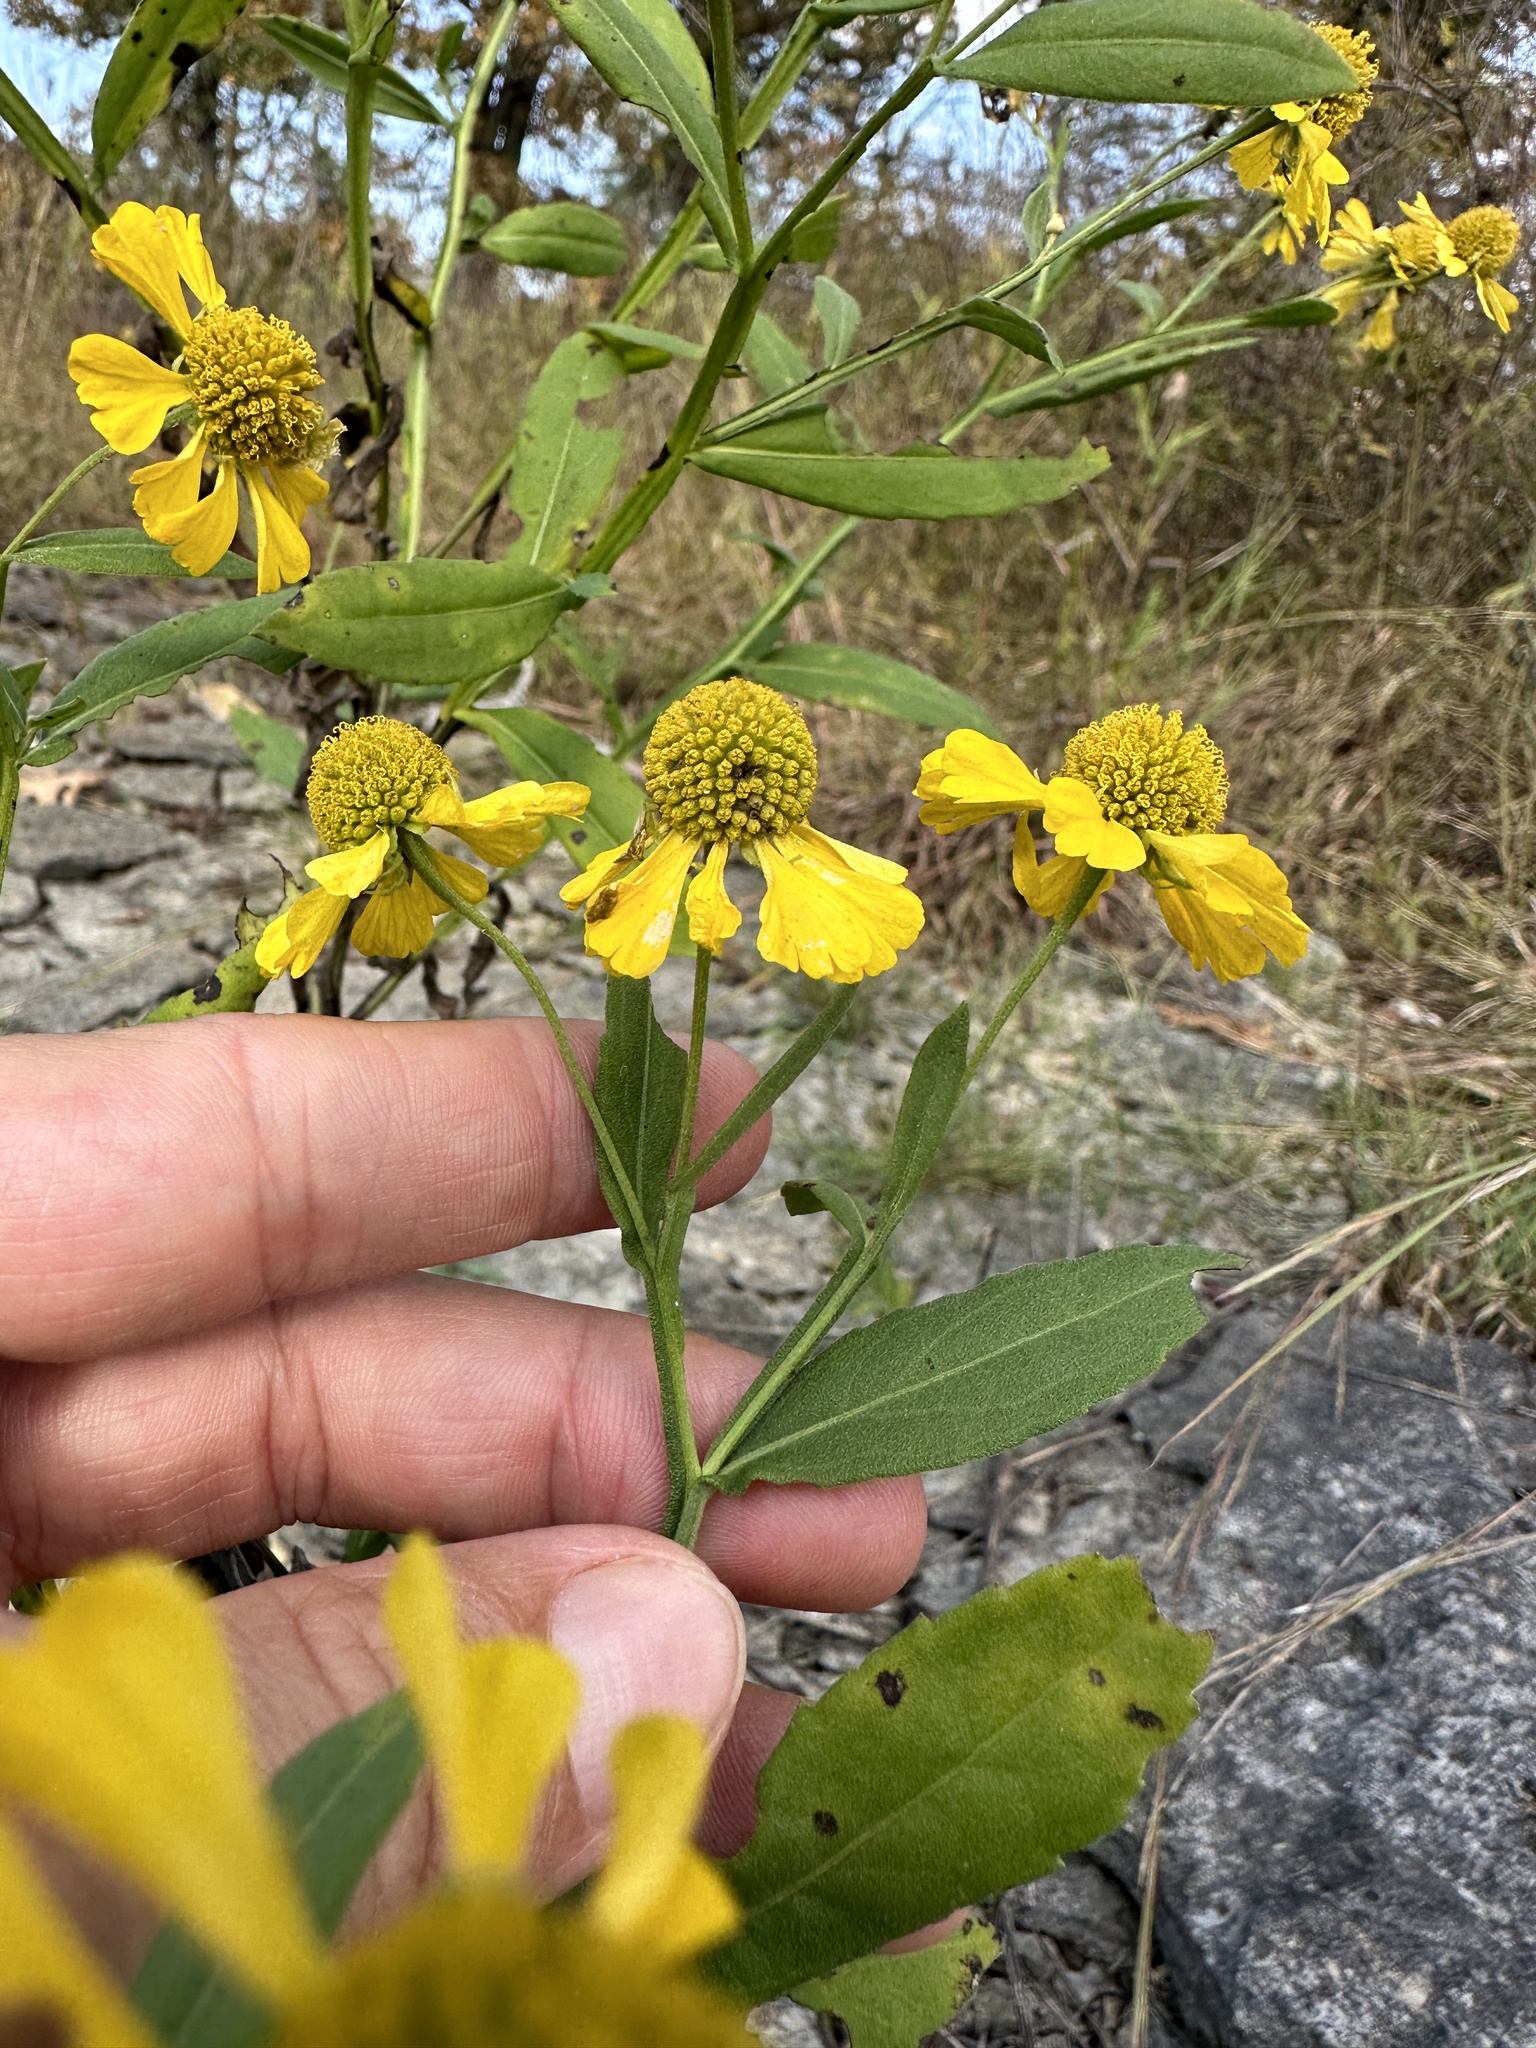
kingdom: Plantae
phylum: Tracheophyta
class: Magnoliopsida
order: Asterales
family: Asteraceae
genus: Helenium
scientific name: Helenium autumnale
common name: Sneezeweed
